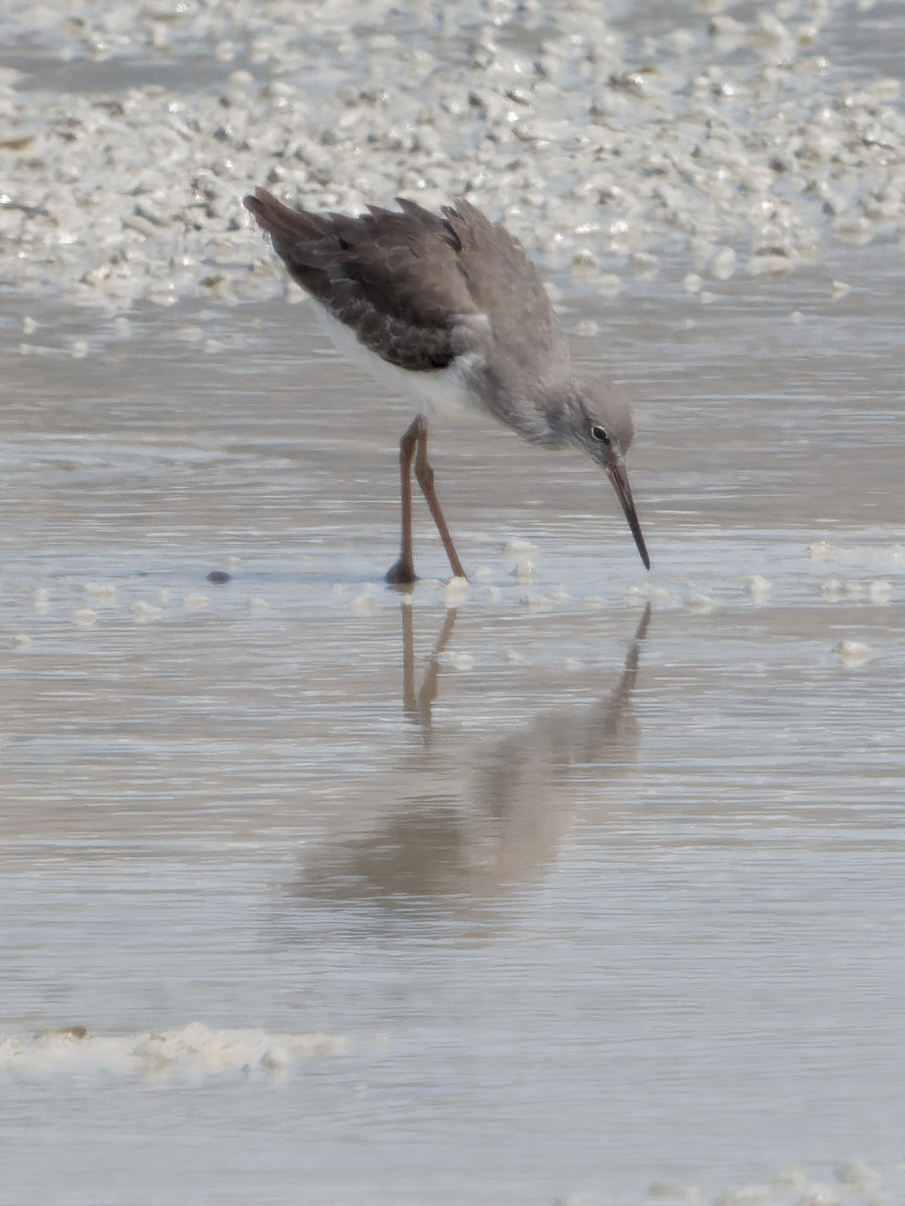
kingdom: Animalia
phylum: Chordata
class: Aves
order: Charadriiformes
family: Scolopacidae
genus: Tringa
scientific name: Tringa totanus
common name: Common redshank
